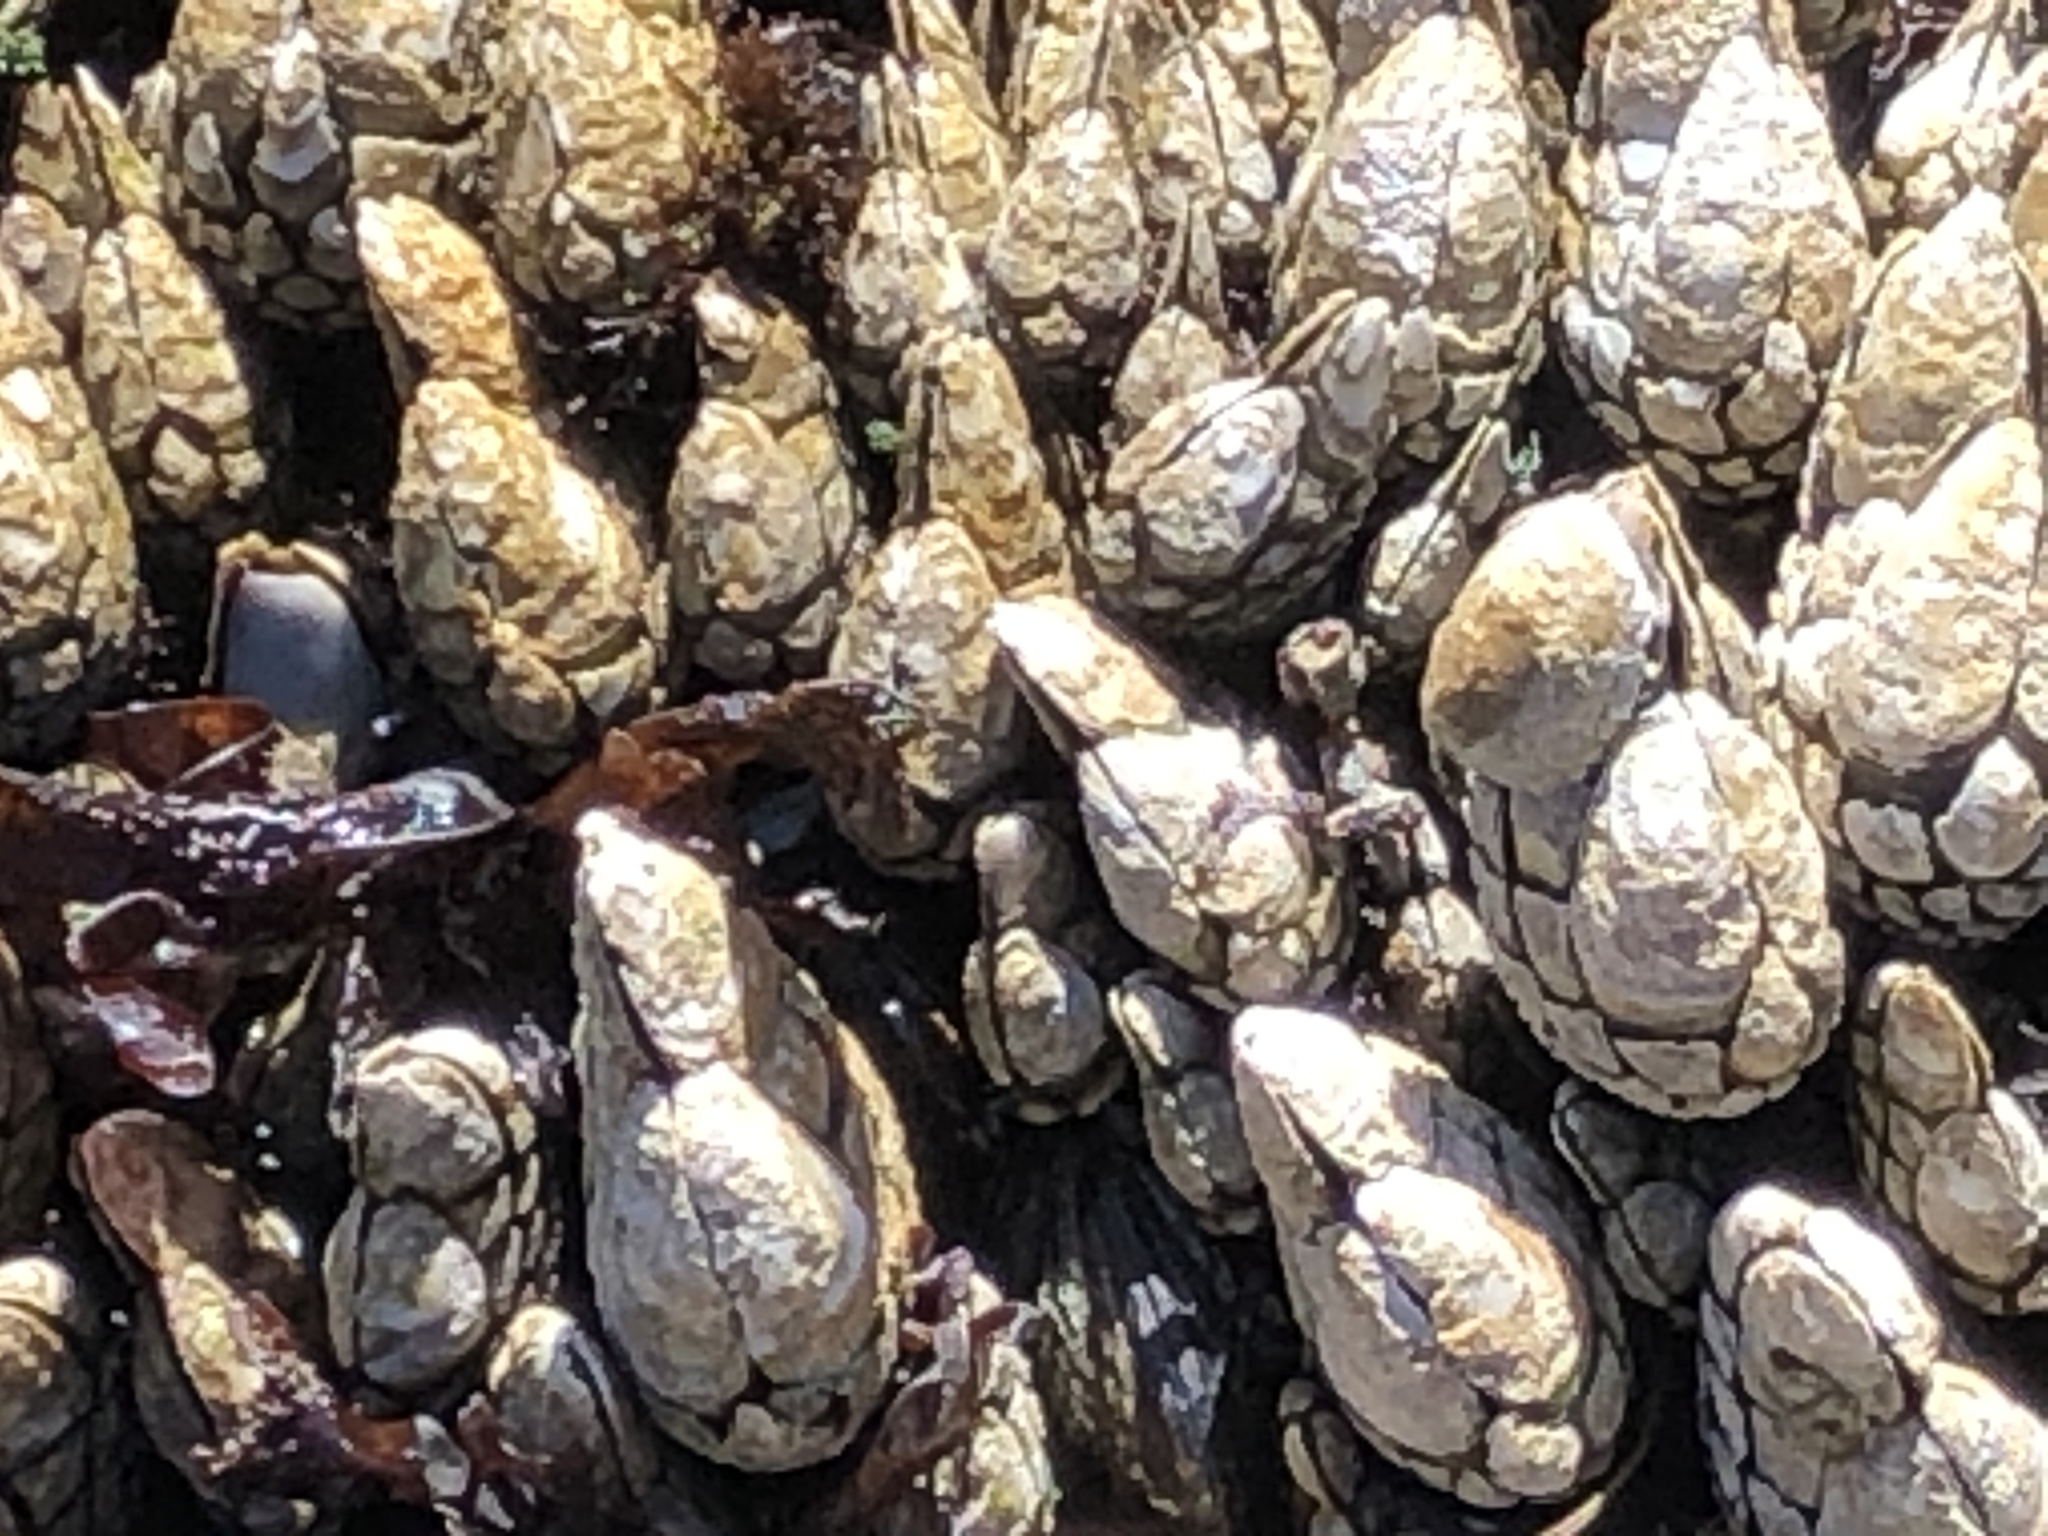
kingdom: Animalia
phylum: Arthropoda
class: Maxillopoda
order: Pedunculata
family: Pollicipedidae
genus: Pollicipes
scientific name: Pollicipes polymerus
